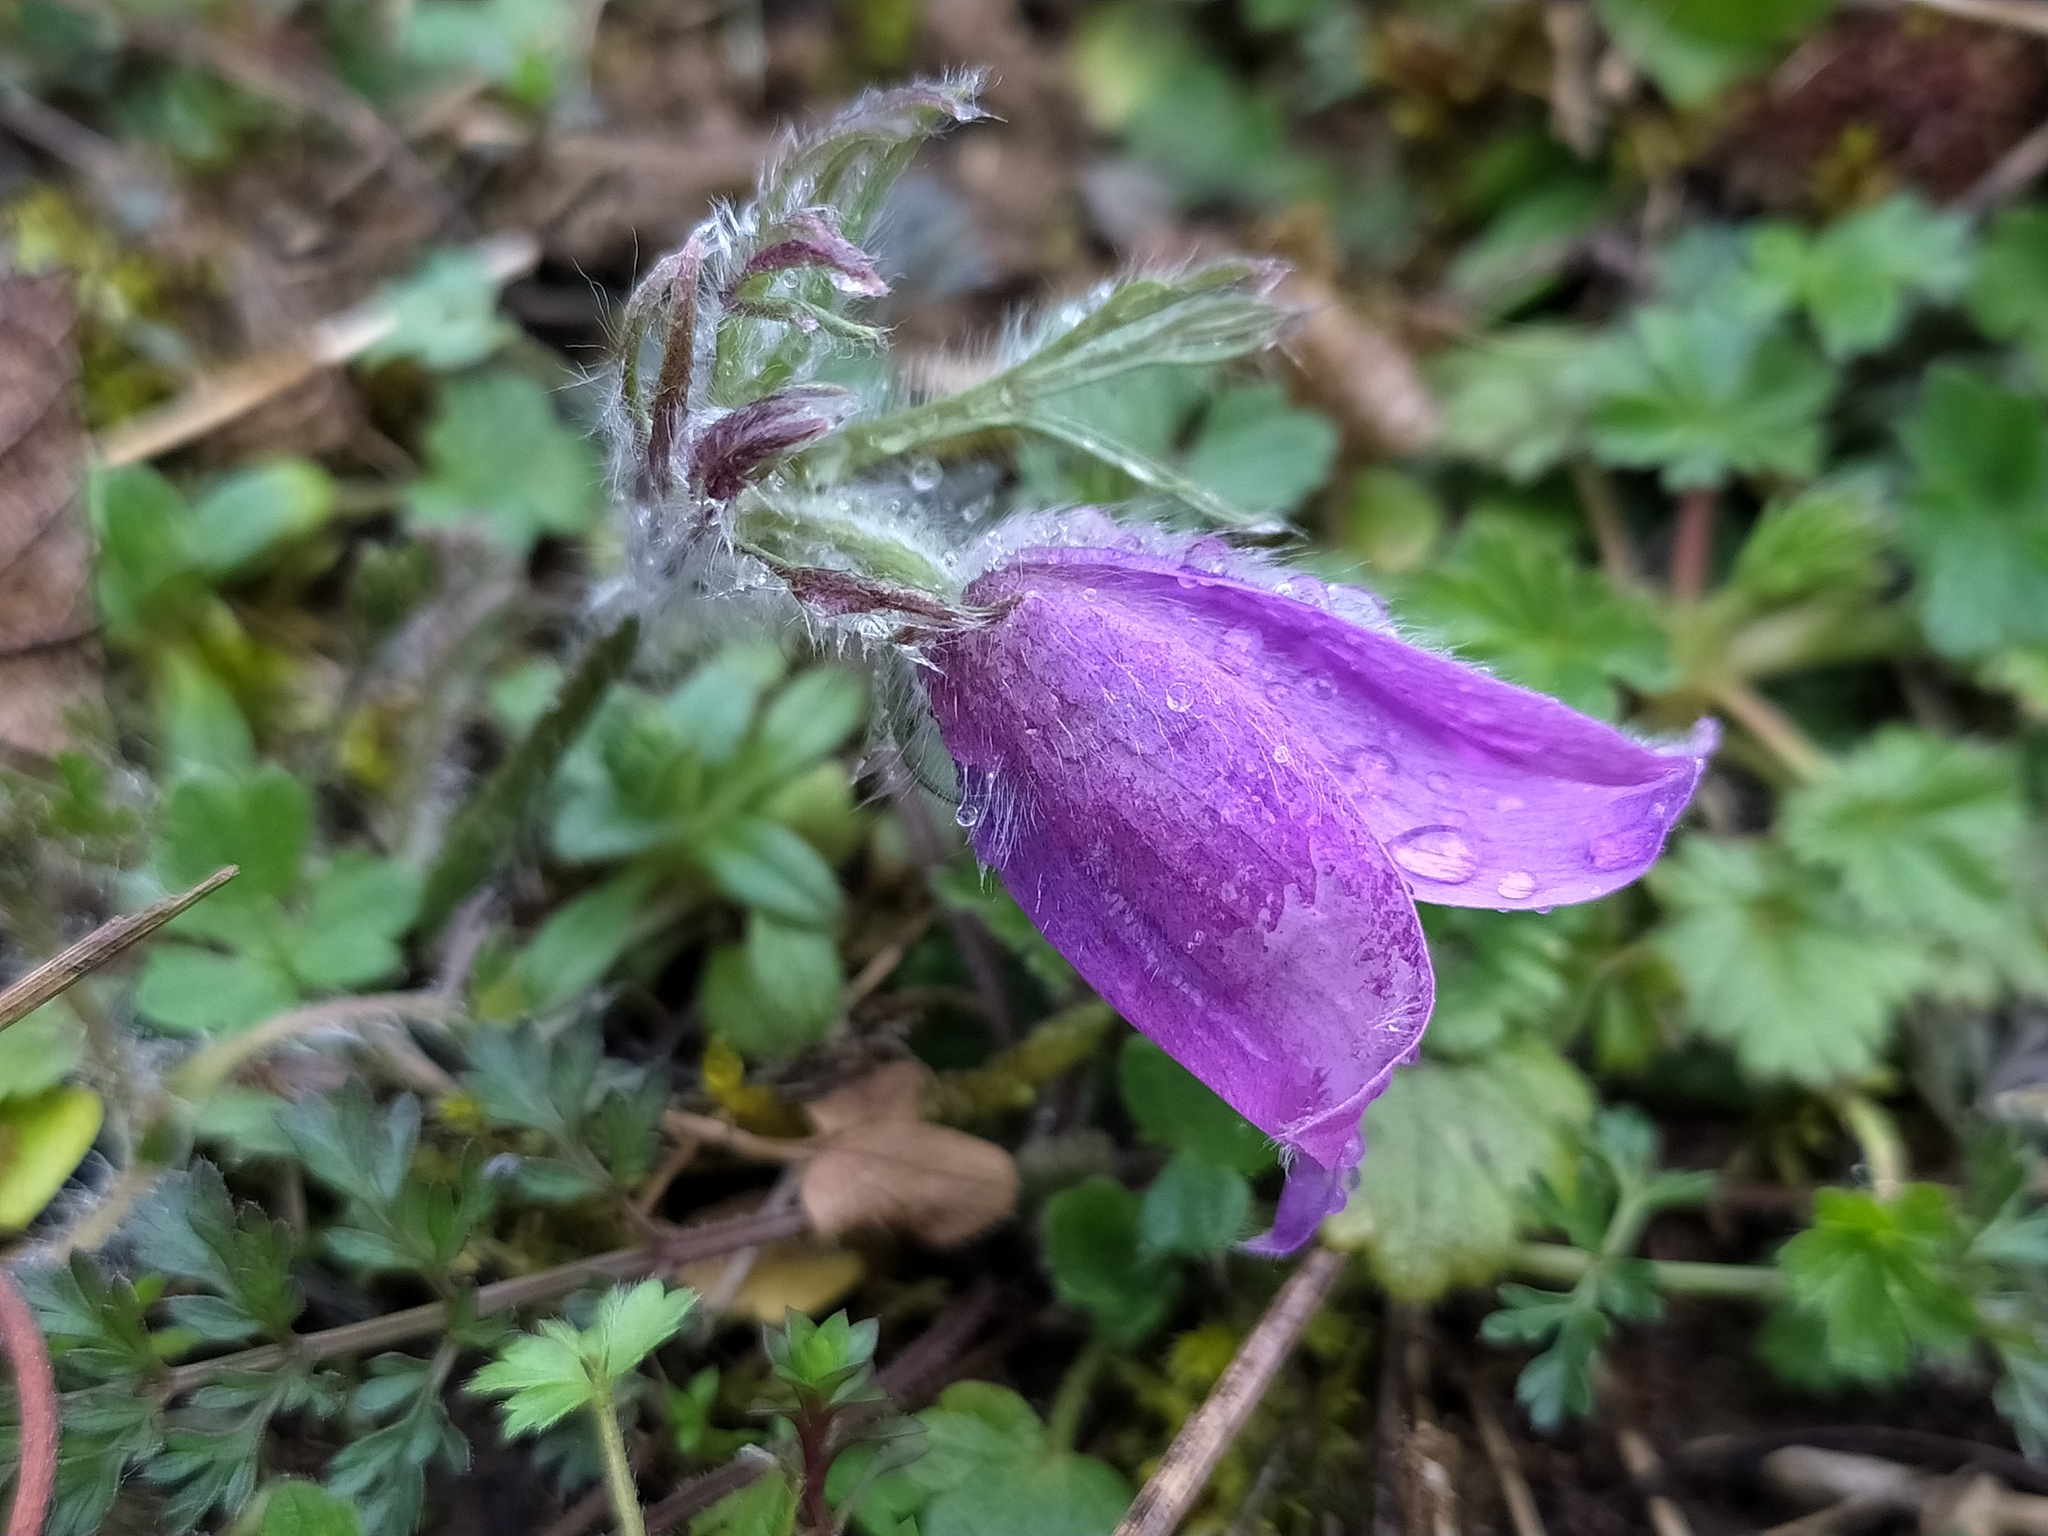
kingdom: Plantae
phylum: Tracheophyta
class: Magnoliopsida
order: Ranunculales
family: Ranunculaceae
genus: Pulsatilla
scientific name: Pulsatilla vulgaris
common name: Pasqueflower
